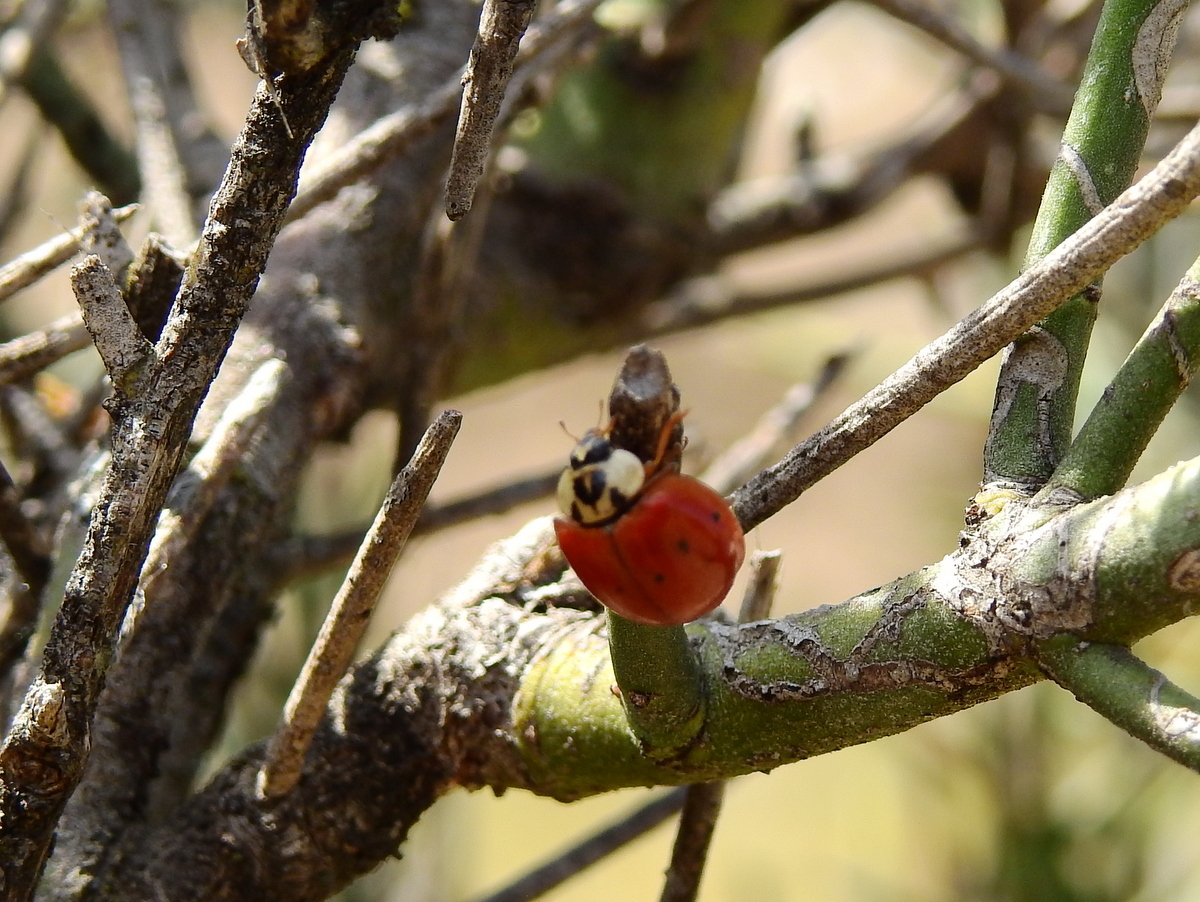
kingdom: Animalia
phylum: Arthropoda
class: Insecta
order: Coleoptera
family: Coccinellidae
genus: Harmonia
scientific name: Harmonia axyridis
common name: Harlequin ladybird
